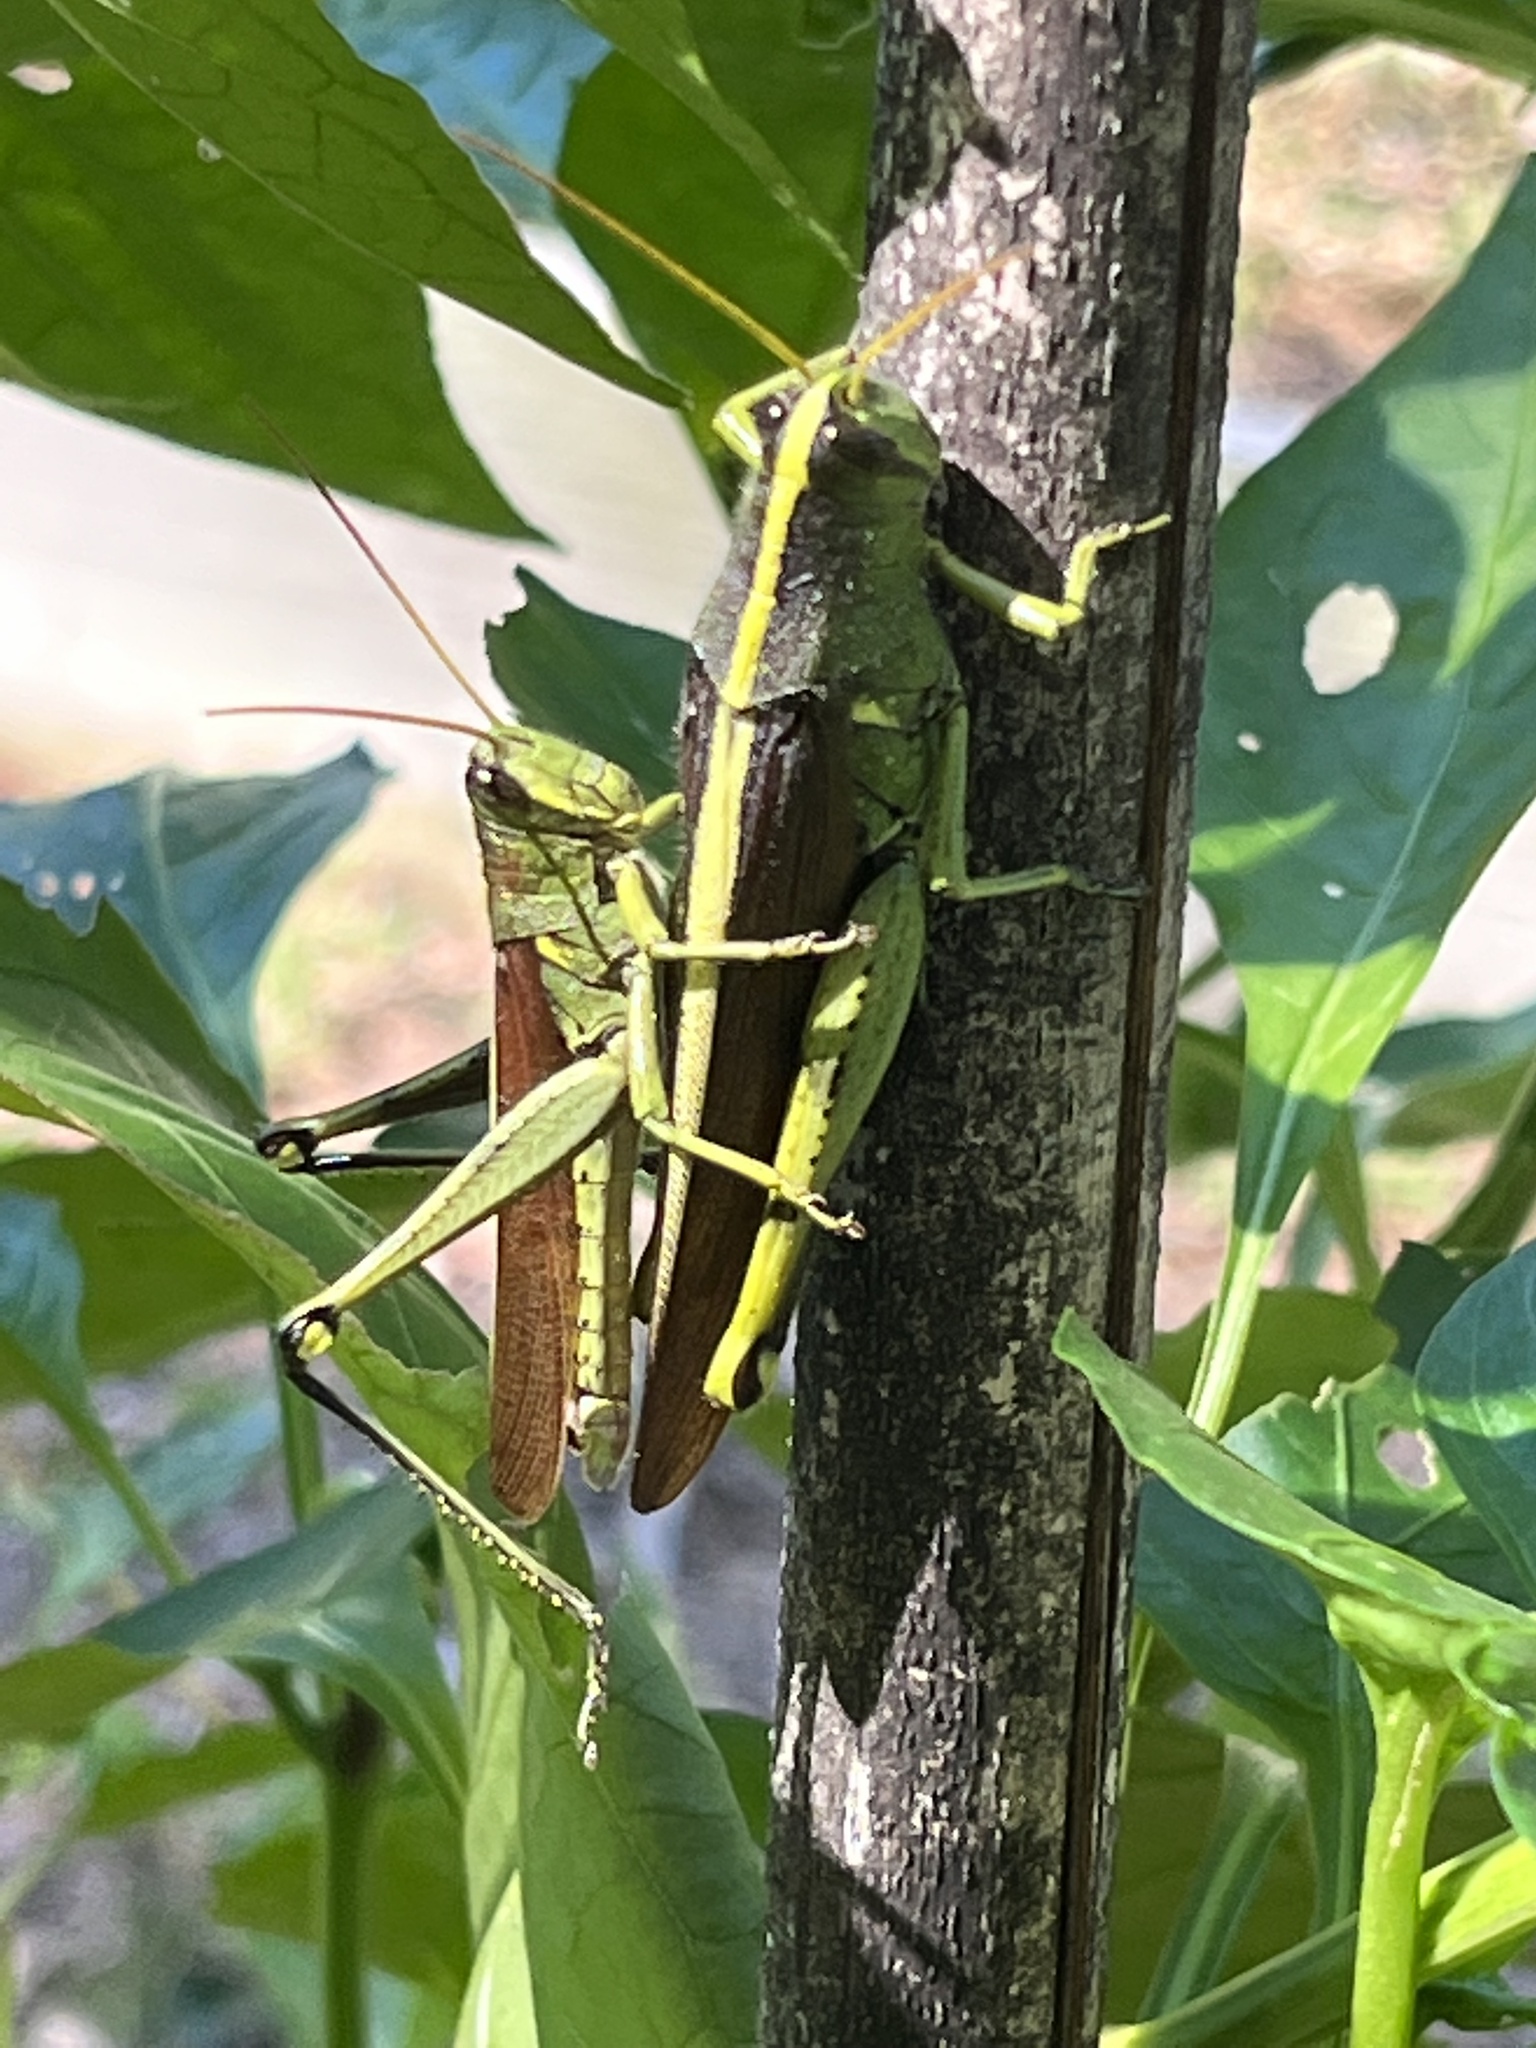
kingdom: Animalia
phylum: Arthropoda
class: Insecta
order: Orthoptera
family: Acrididae
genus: Schistocerca
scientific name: Schistocerca obscura
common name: Obscure bird grasshopper
